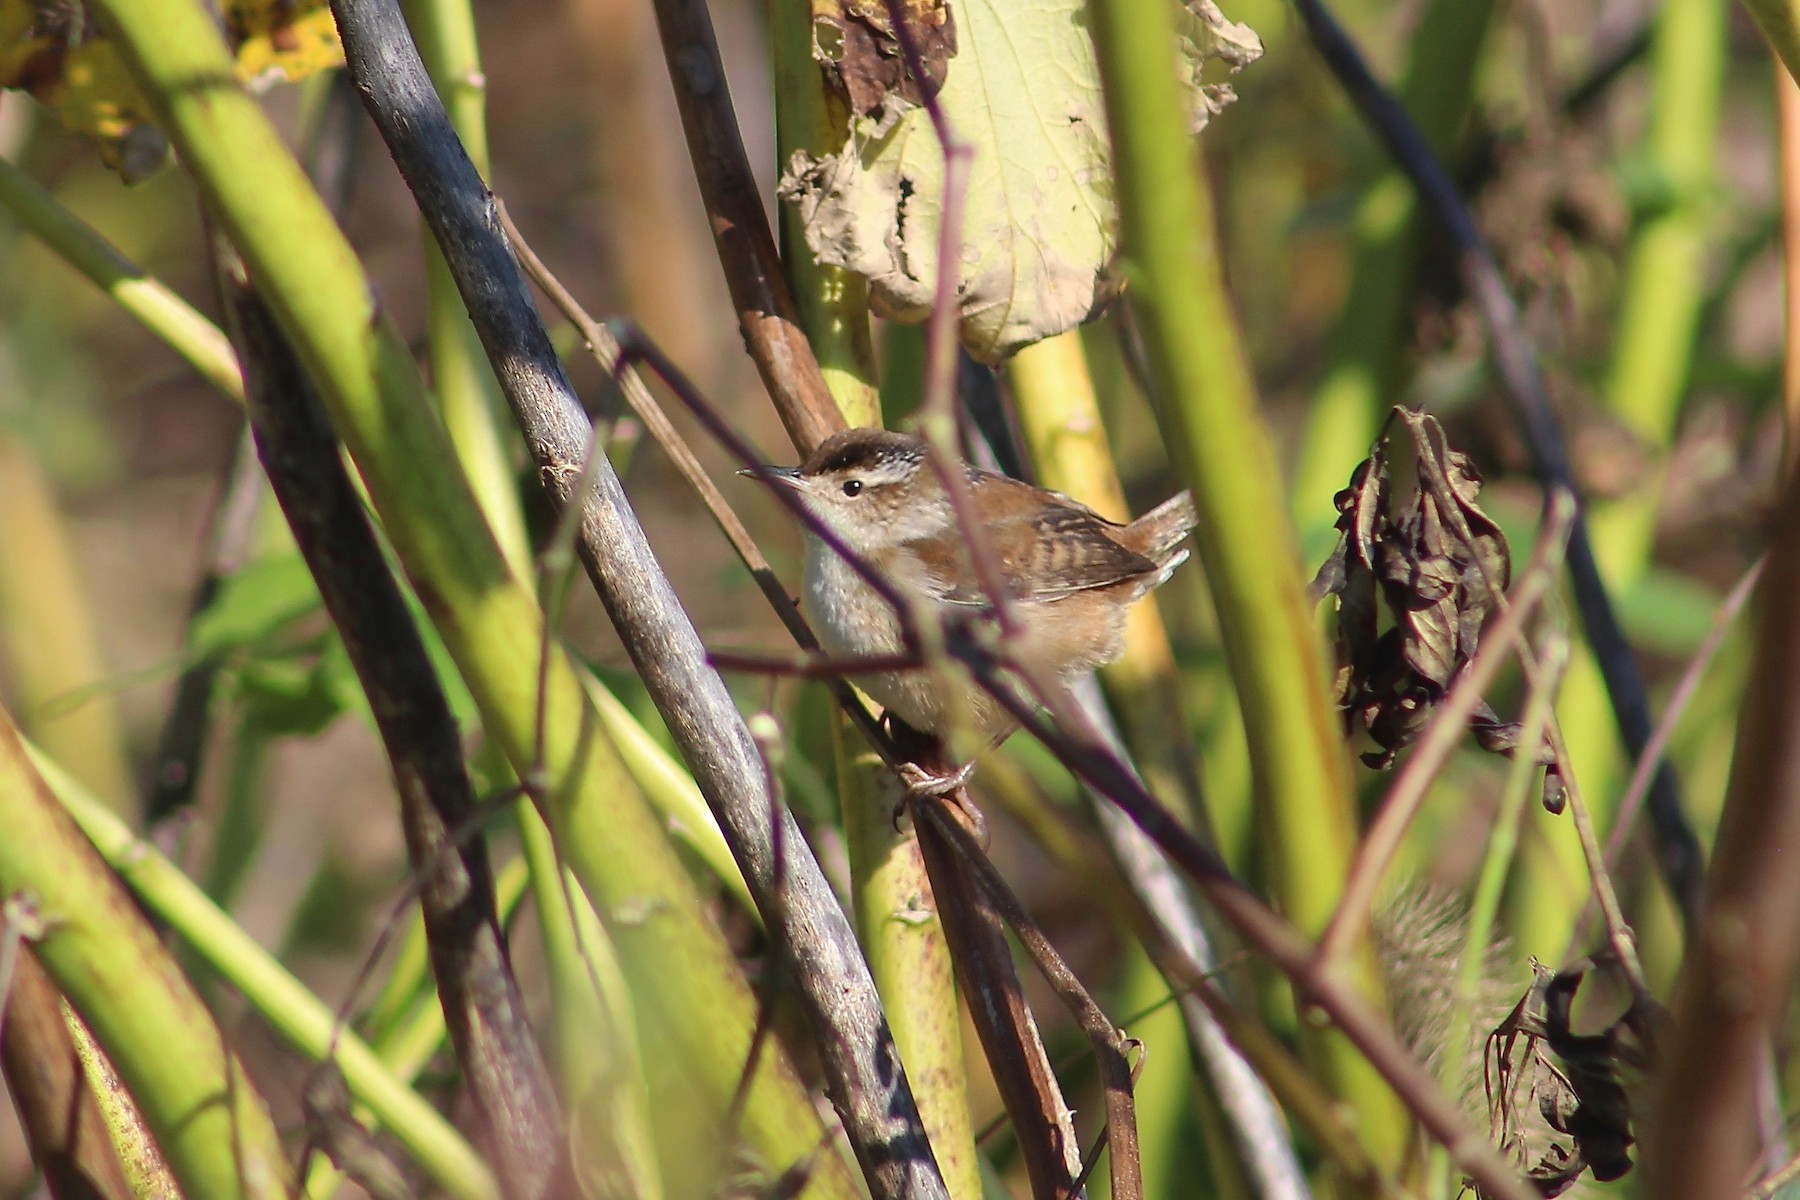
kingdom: Animalia
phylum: Chordata
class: Aves
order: Passeriformes
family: Troglodytidae
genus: Cistothorus
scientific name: Cistothorus palustris
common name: Marsh wren
